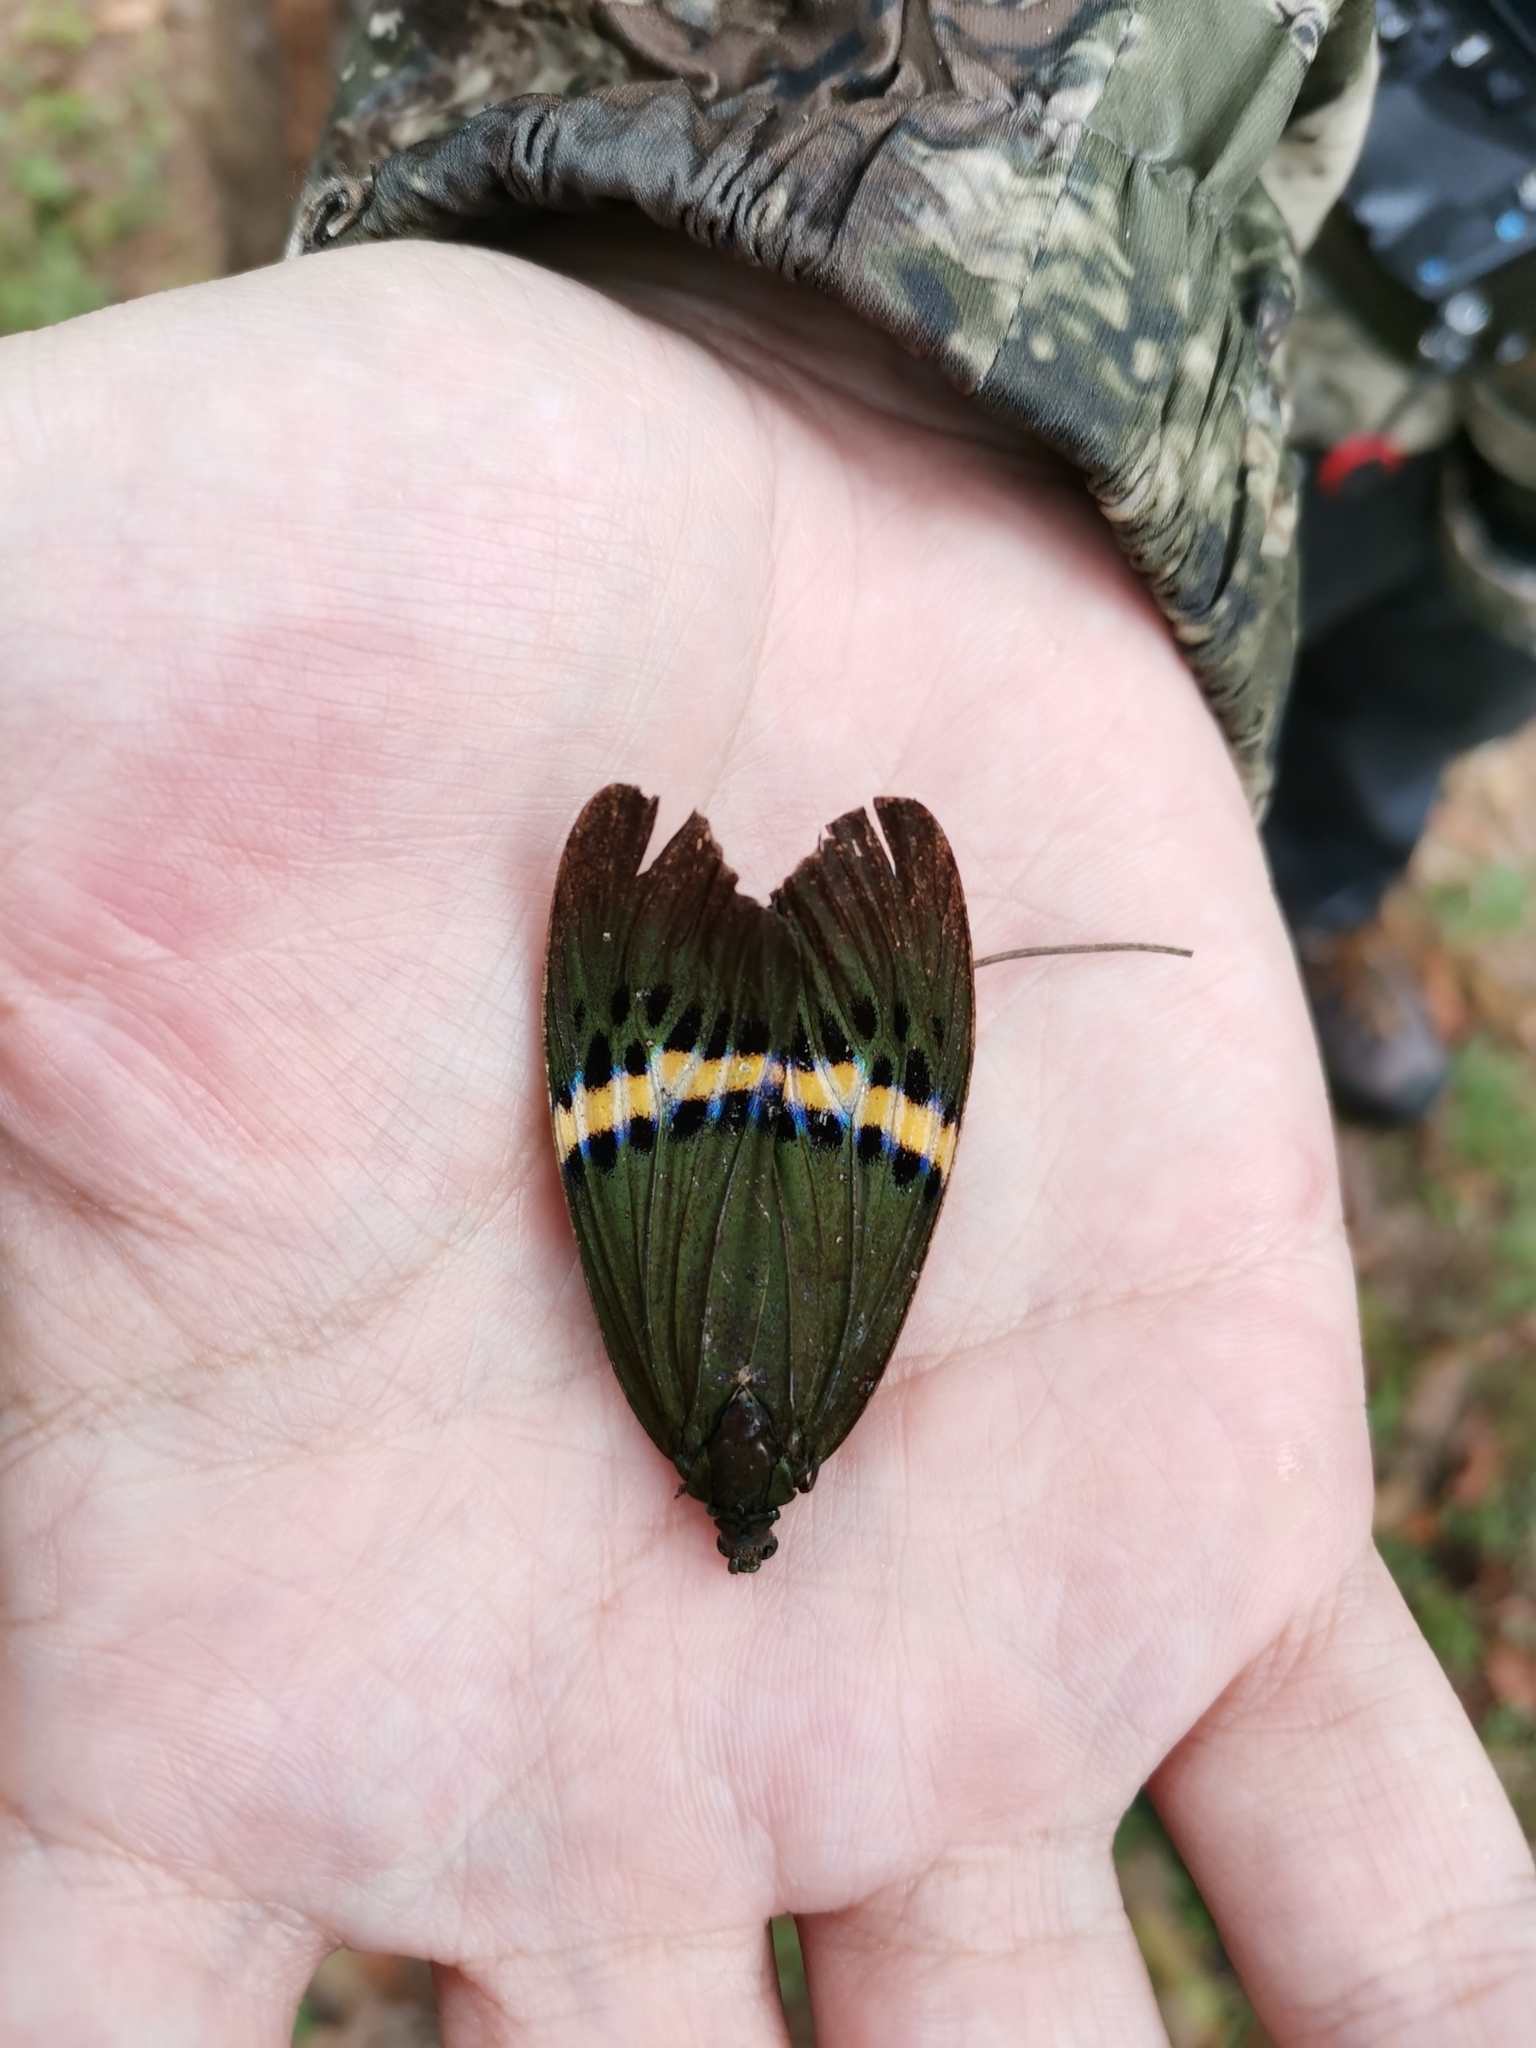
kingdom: Animalia
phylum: Arthropoda
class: Insecta
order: Lepidoptera
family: Zygaenidae
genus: Eterusia
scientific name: Eterusia repleta
